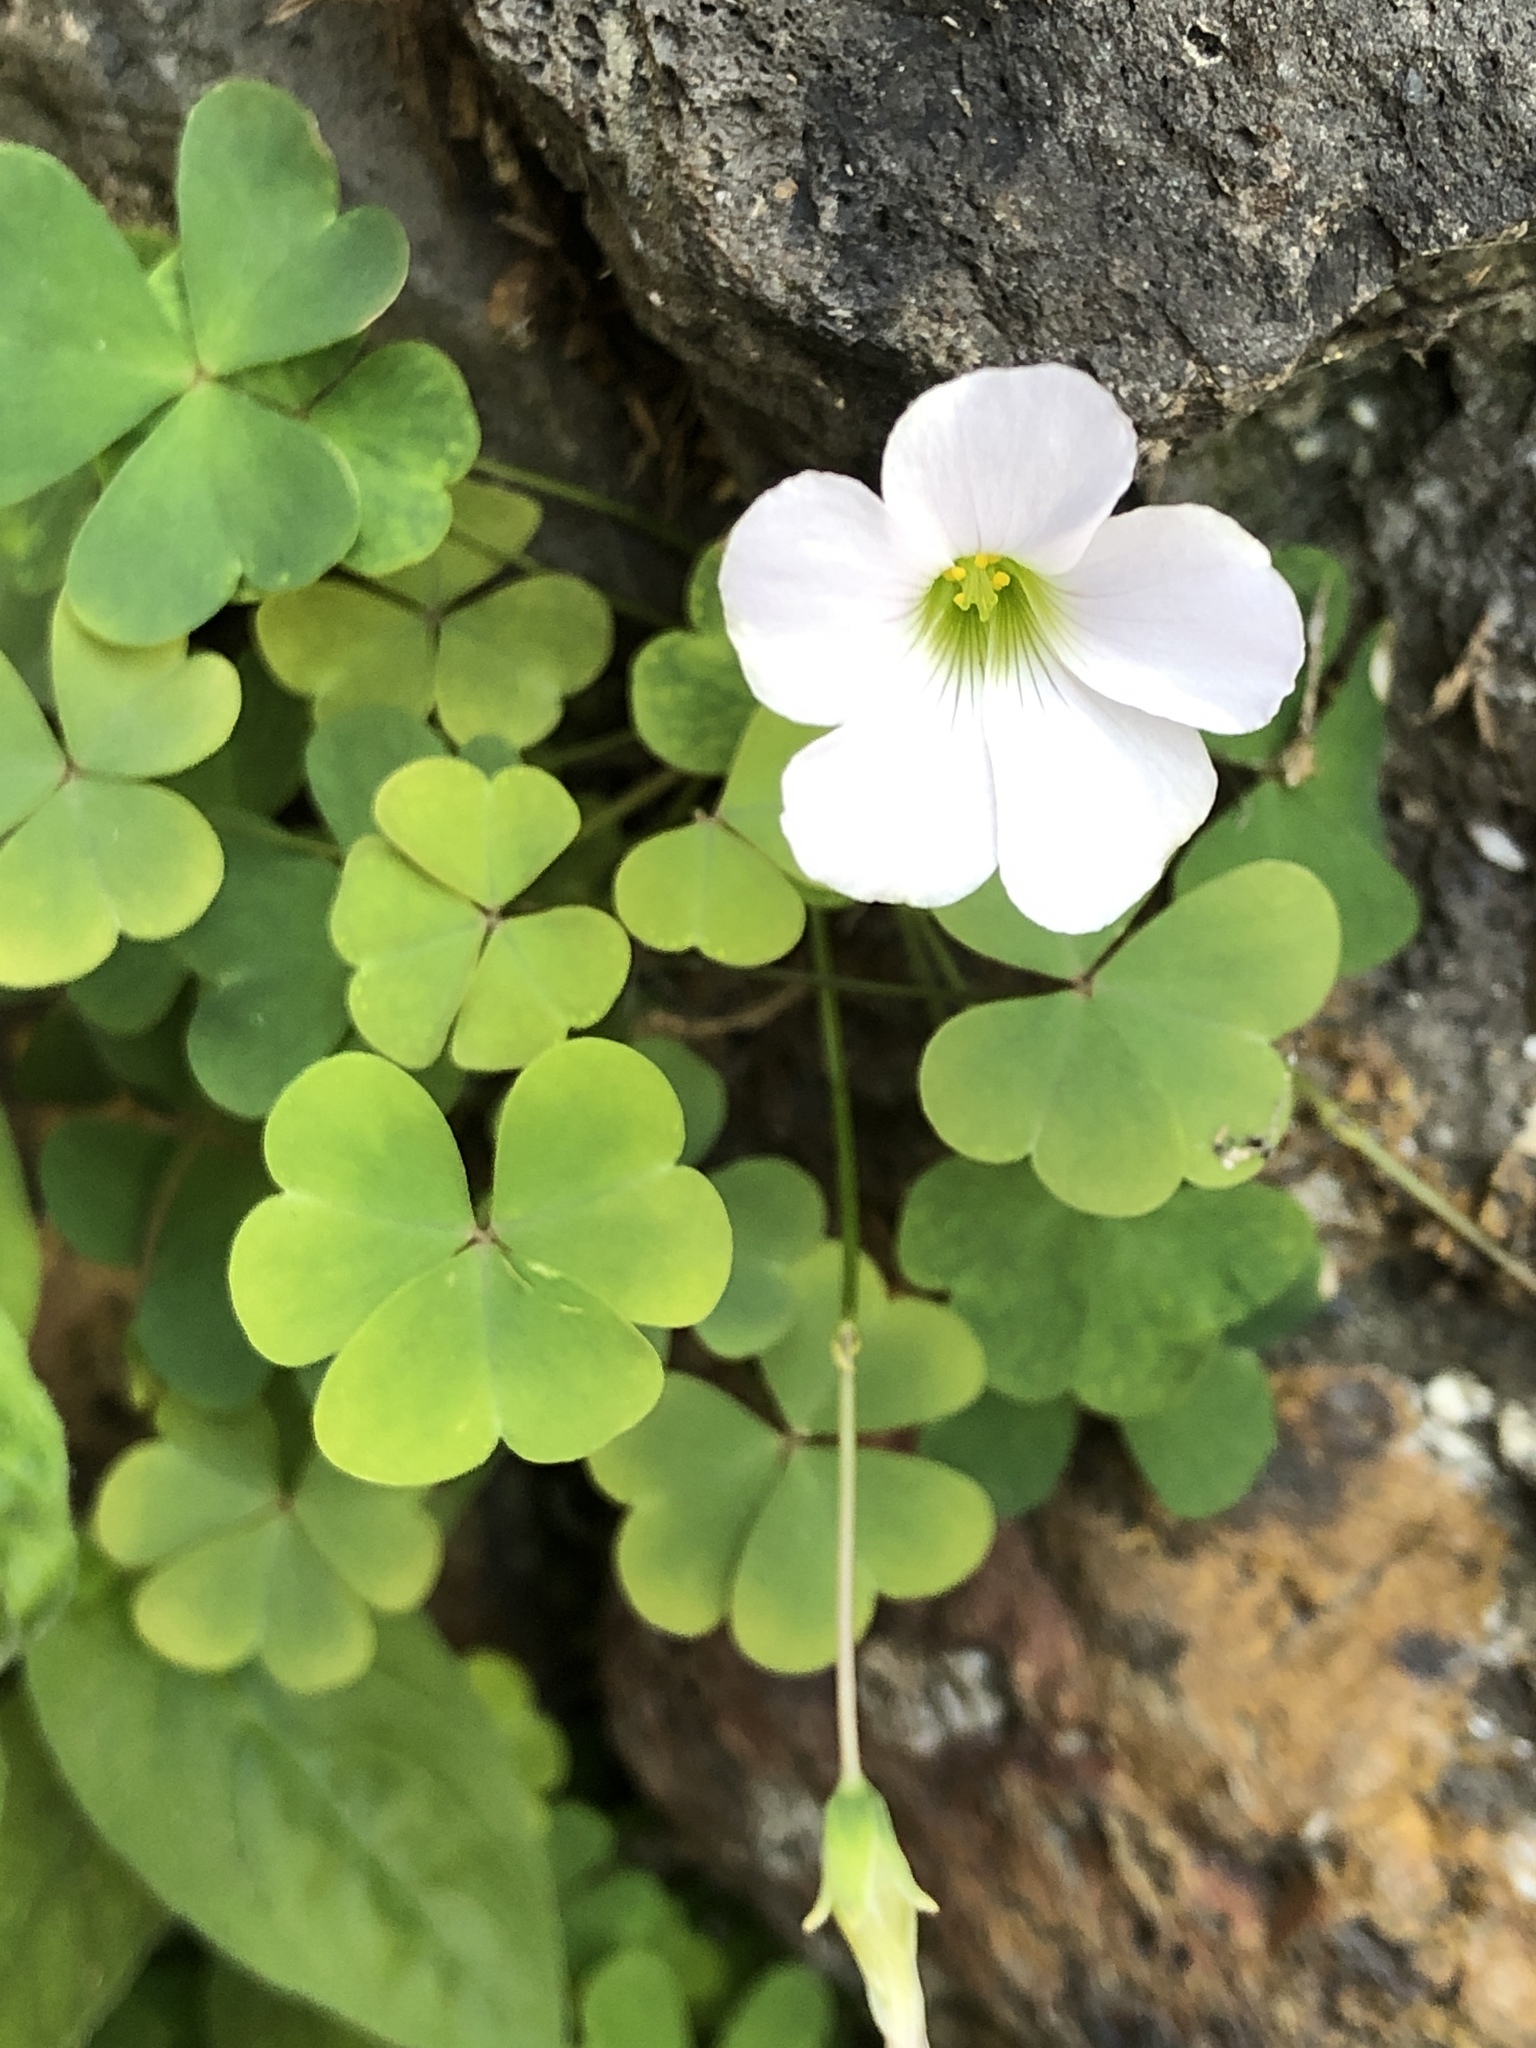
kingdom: Plantae
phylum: Tracheophyta
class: Magnoliopsida
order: Oxalidales
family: Oxalidaceae
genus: Oxalis
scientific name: Oxalis incarnata
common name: Pale pink-sorrel
